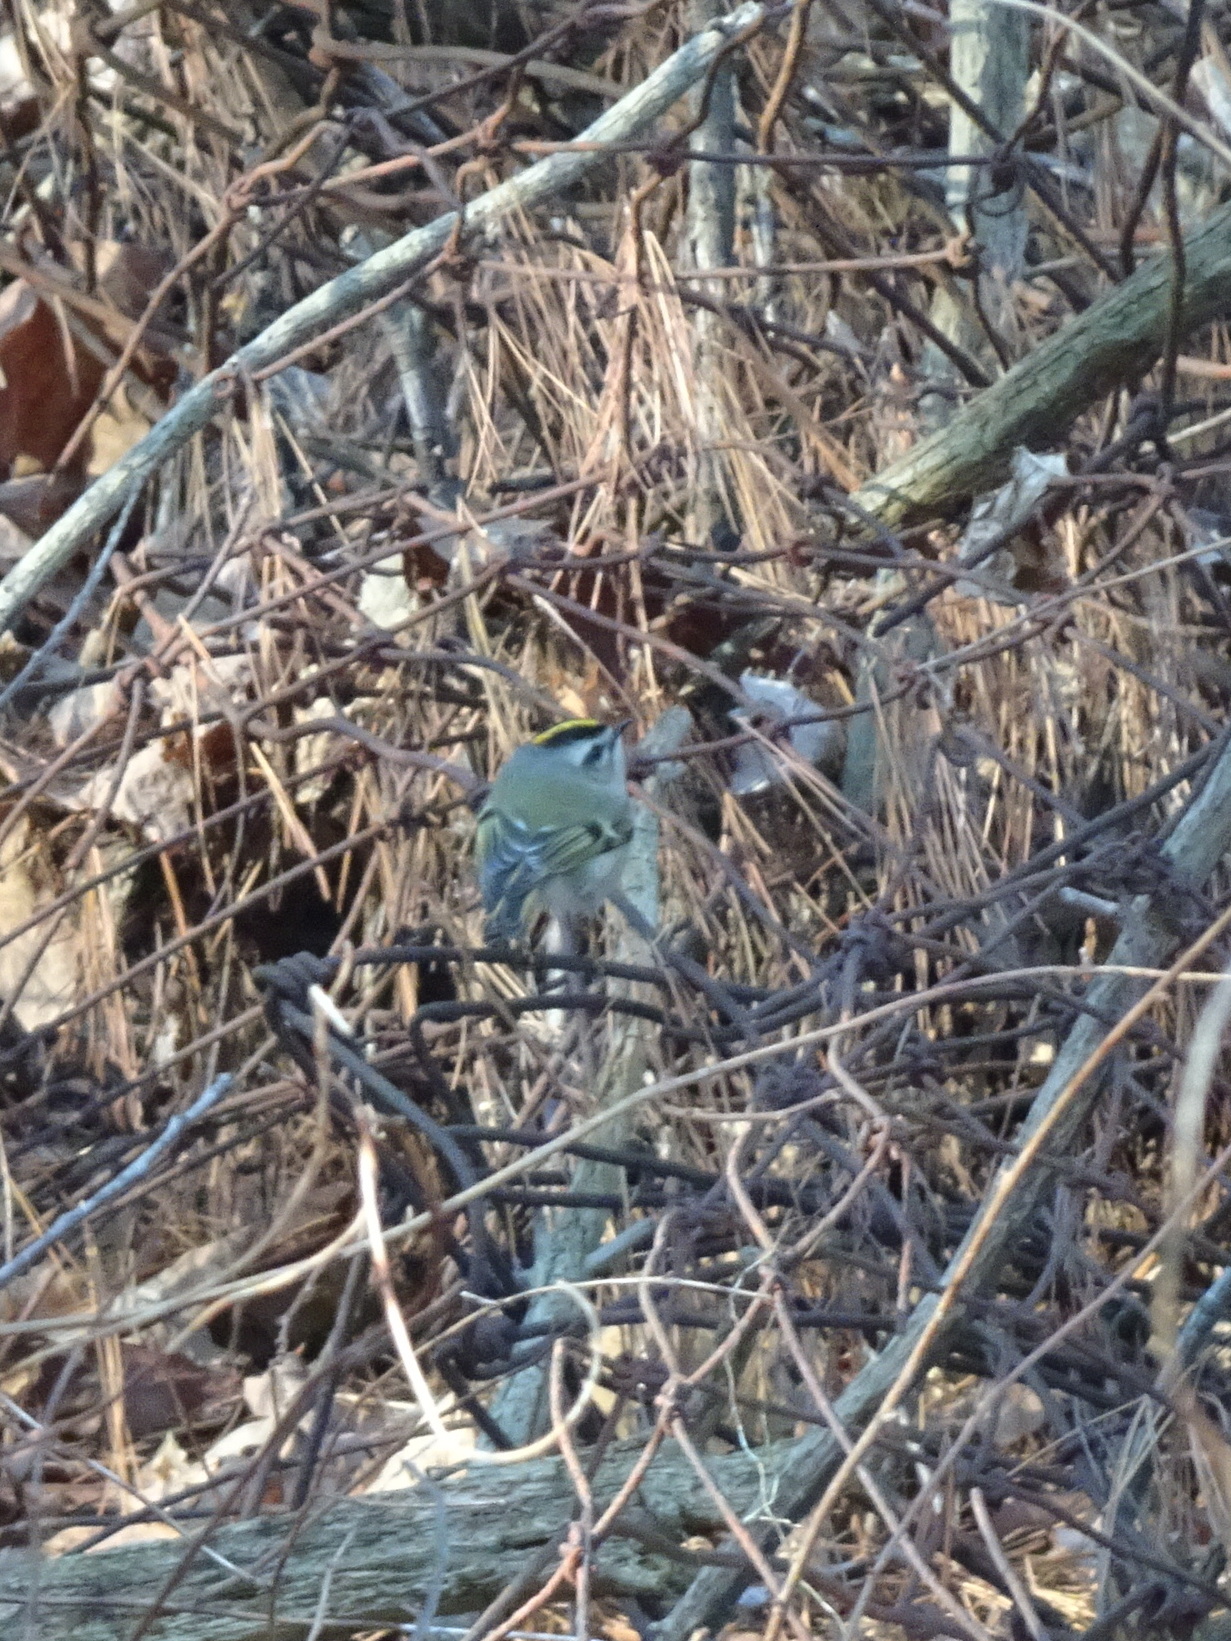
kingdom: Animalia
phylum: Chordata
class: Aves
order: Passeriformes
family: Regulidae
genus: Regulus
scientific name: Regulus satrapa
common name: Golden-crowned kinglet
